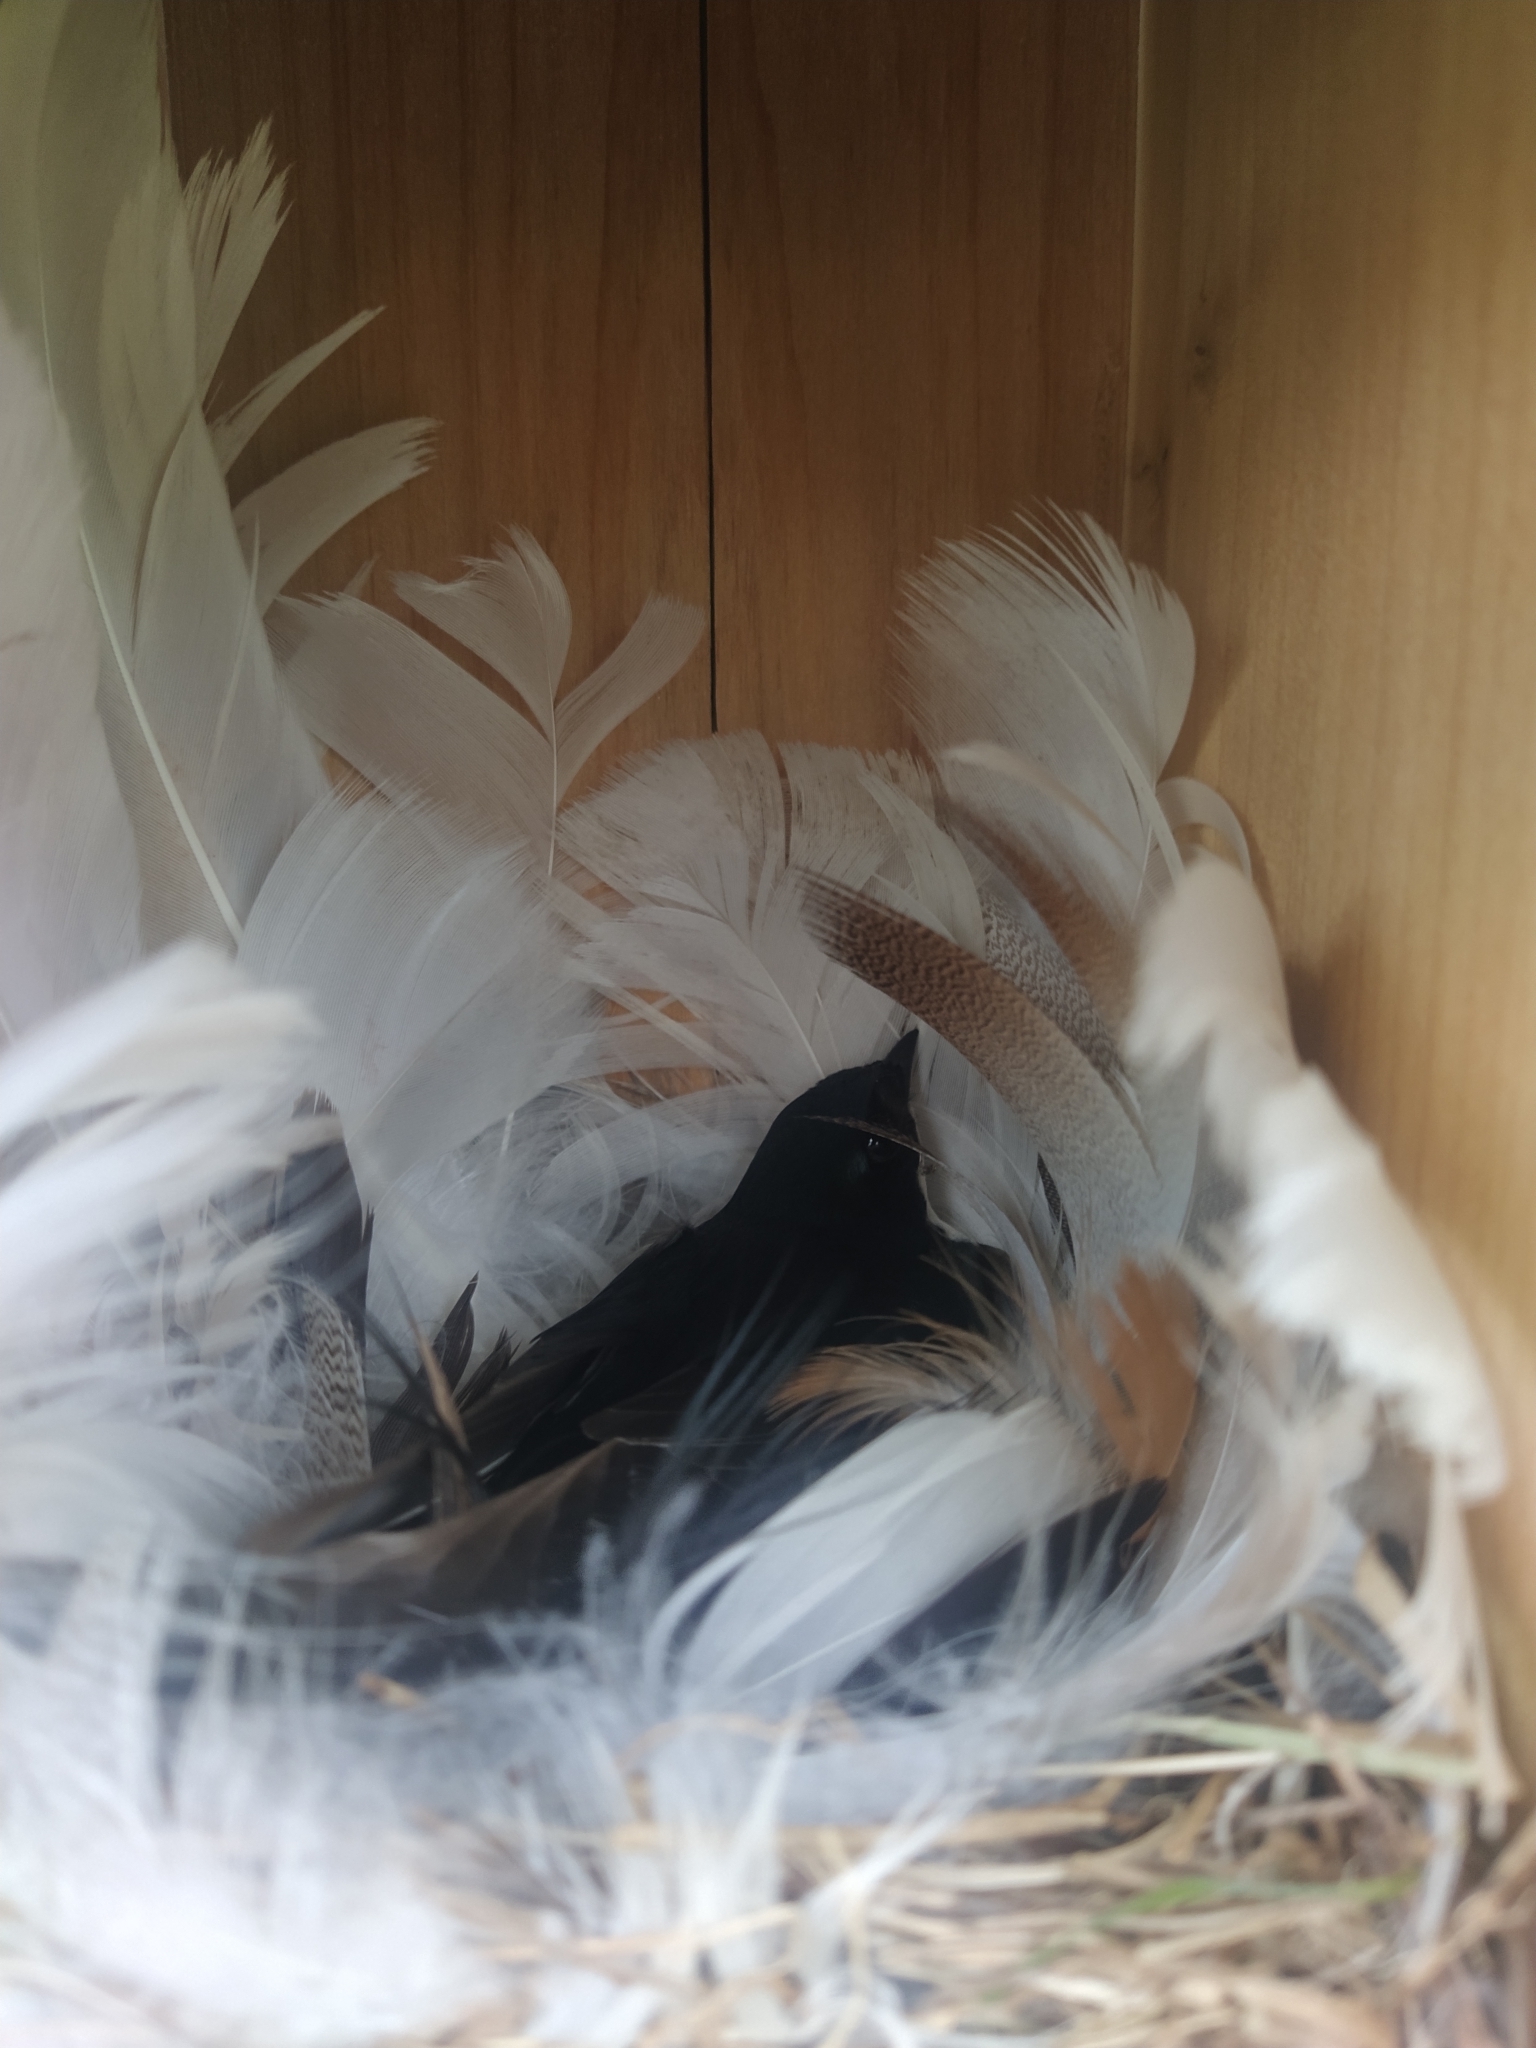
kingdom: Animalia
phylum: Chordata
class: Aves
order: Passeriformes
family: Hirundinidae
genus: Tachycineta
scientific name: Tachycineta bicolor
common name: Tree swallow
